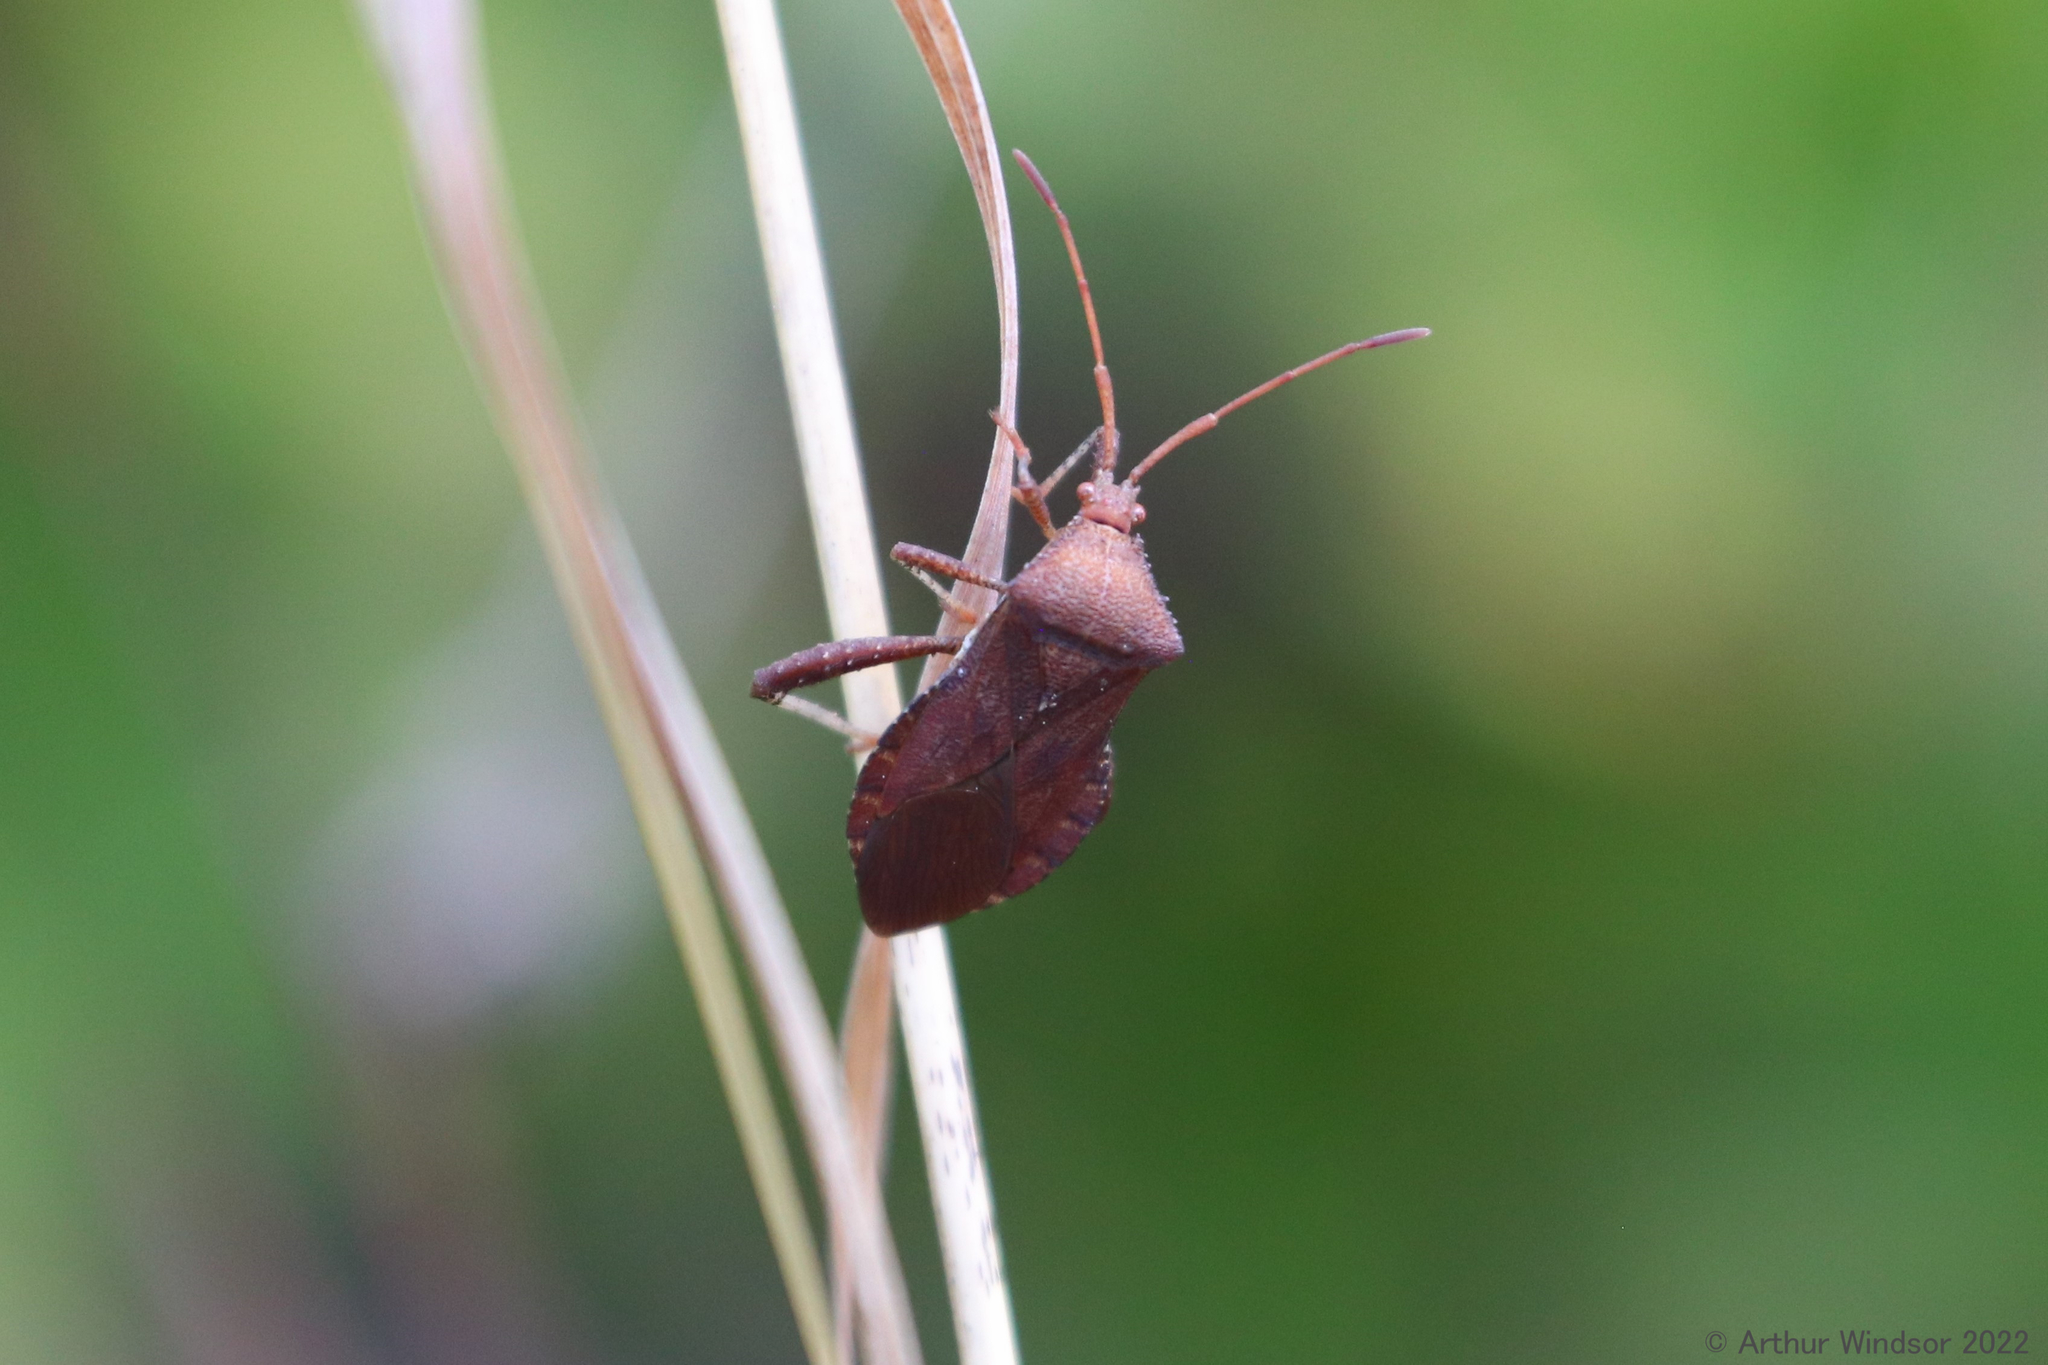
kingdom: Animalia
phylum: Arthropoda
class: Insecta
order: Hemiptera
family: Coreidae
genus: Euthochtha
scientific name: Euthochtha galeator
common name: Helmeted squash bug
